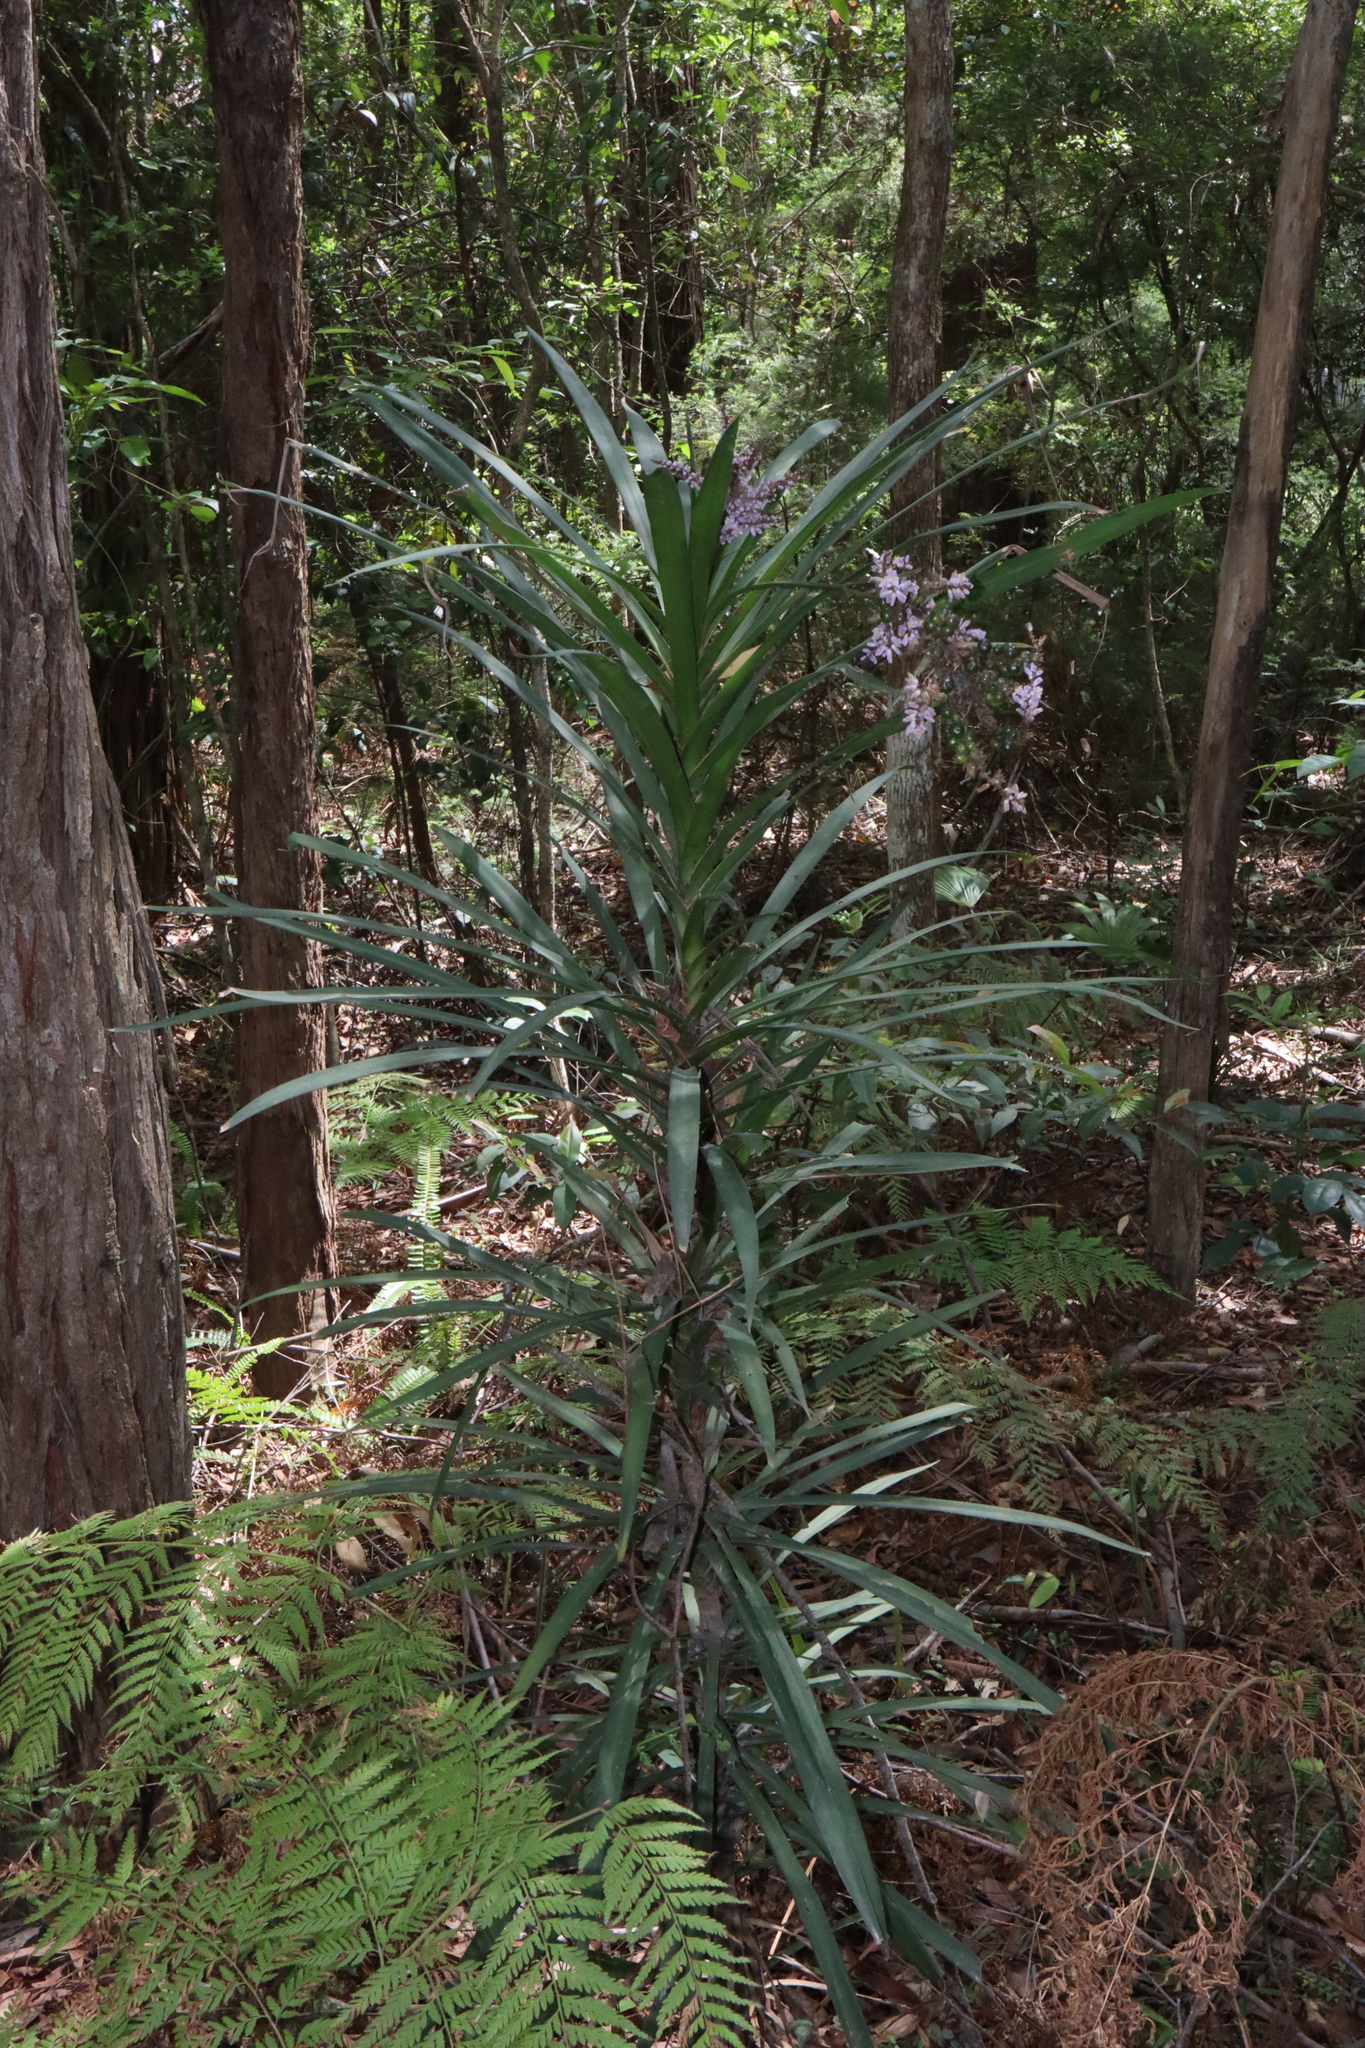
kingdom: Plantae
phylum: Tracheophyta
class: Liliopsida
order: Asparagales
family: Asparagaceae
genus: Cordyline
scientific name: Cordyline stricta
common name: Narrow-leaf palm-lily
